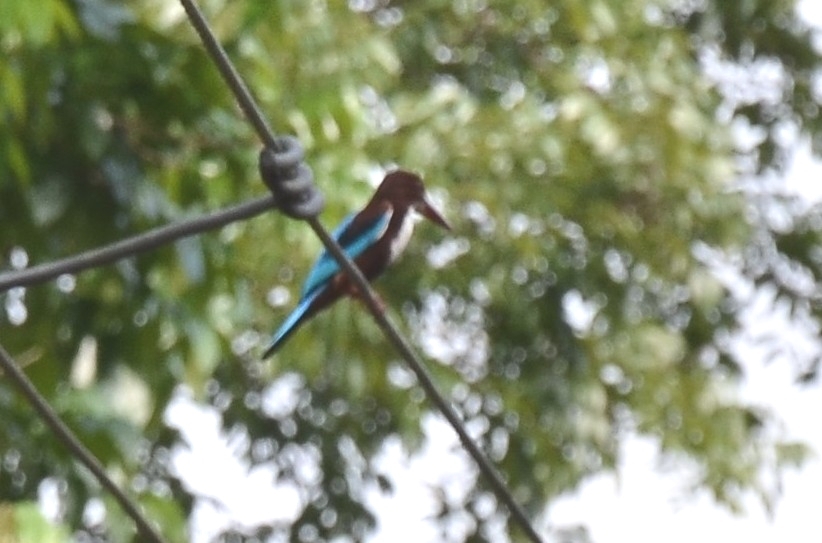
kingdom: Animalia
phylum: Chordata
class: Aves
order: Coraciiformes
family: Alcedinidae
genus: Halcyon
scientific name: Halcyon smyrnensis
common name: White-throated kingfisher
